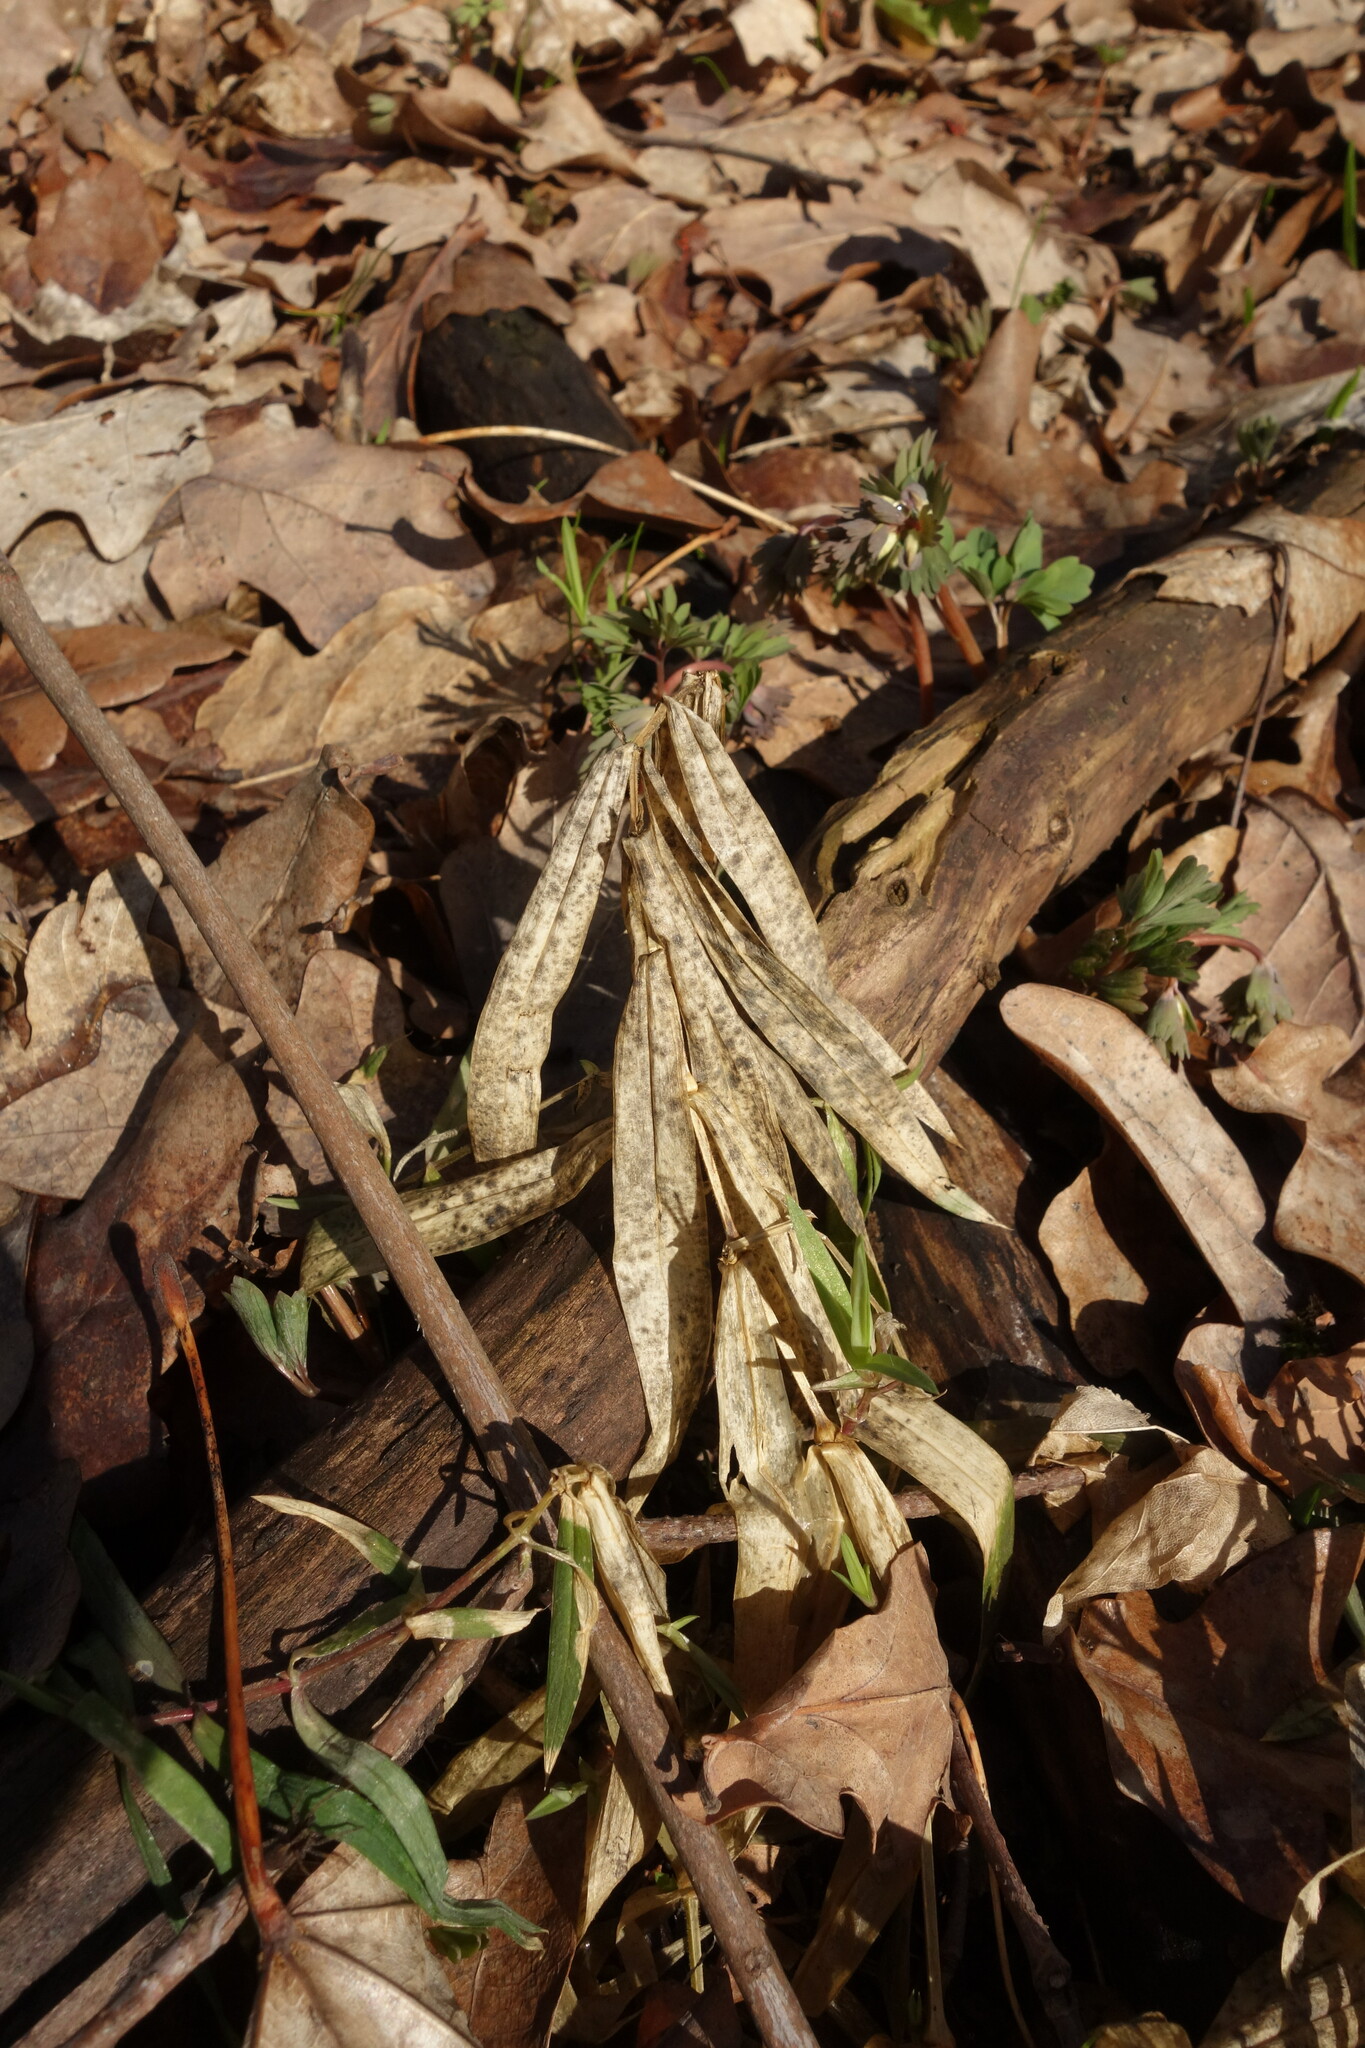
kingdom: Plantae
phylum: Tracheophyta
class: Magnoliopsida
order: Caryophyllales
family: Caryophyllaceae
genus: Rabelera
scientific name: Rabelera holostea
